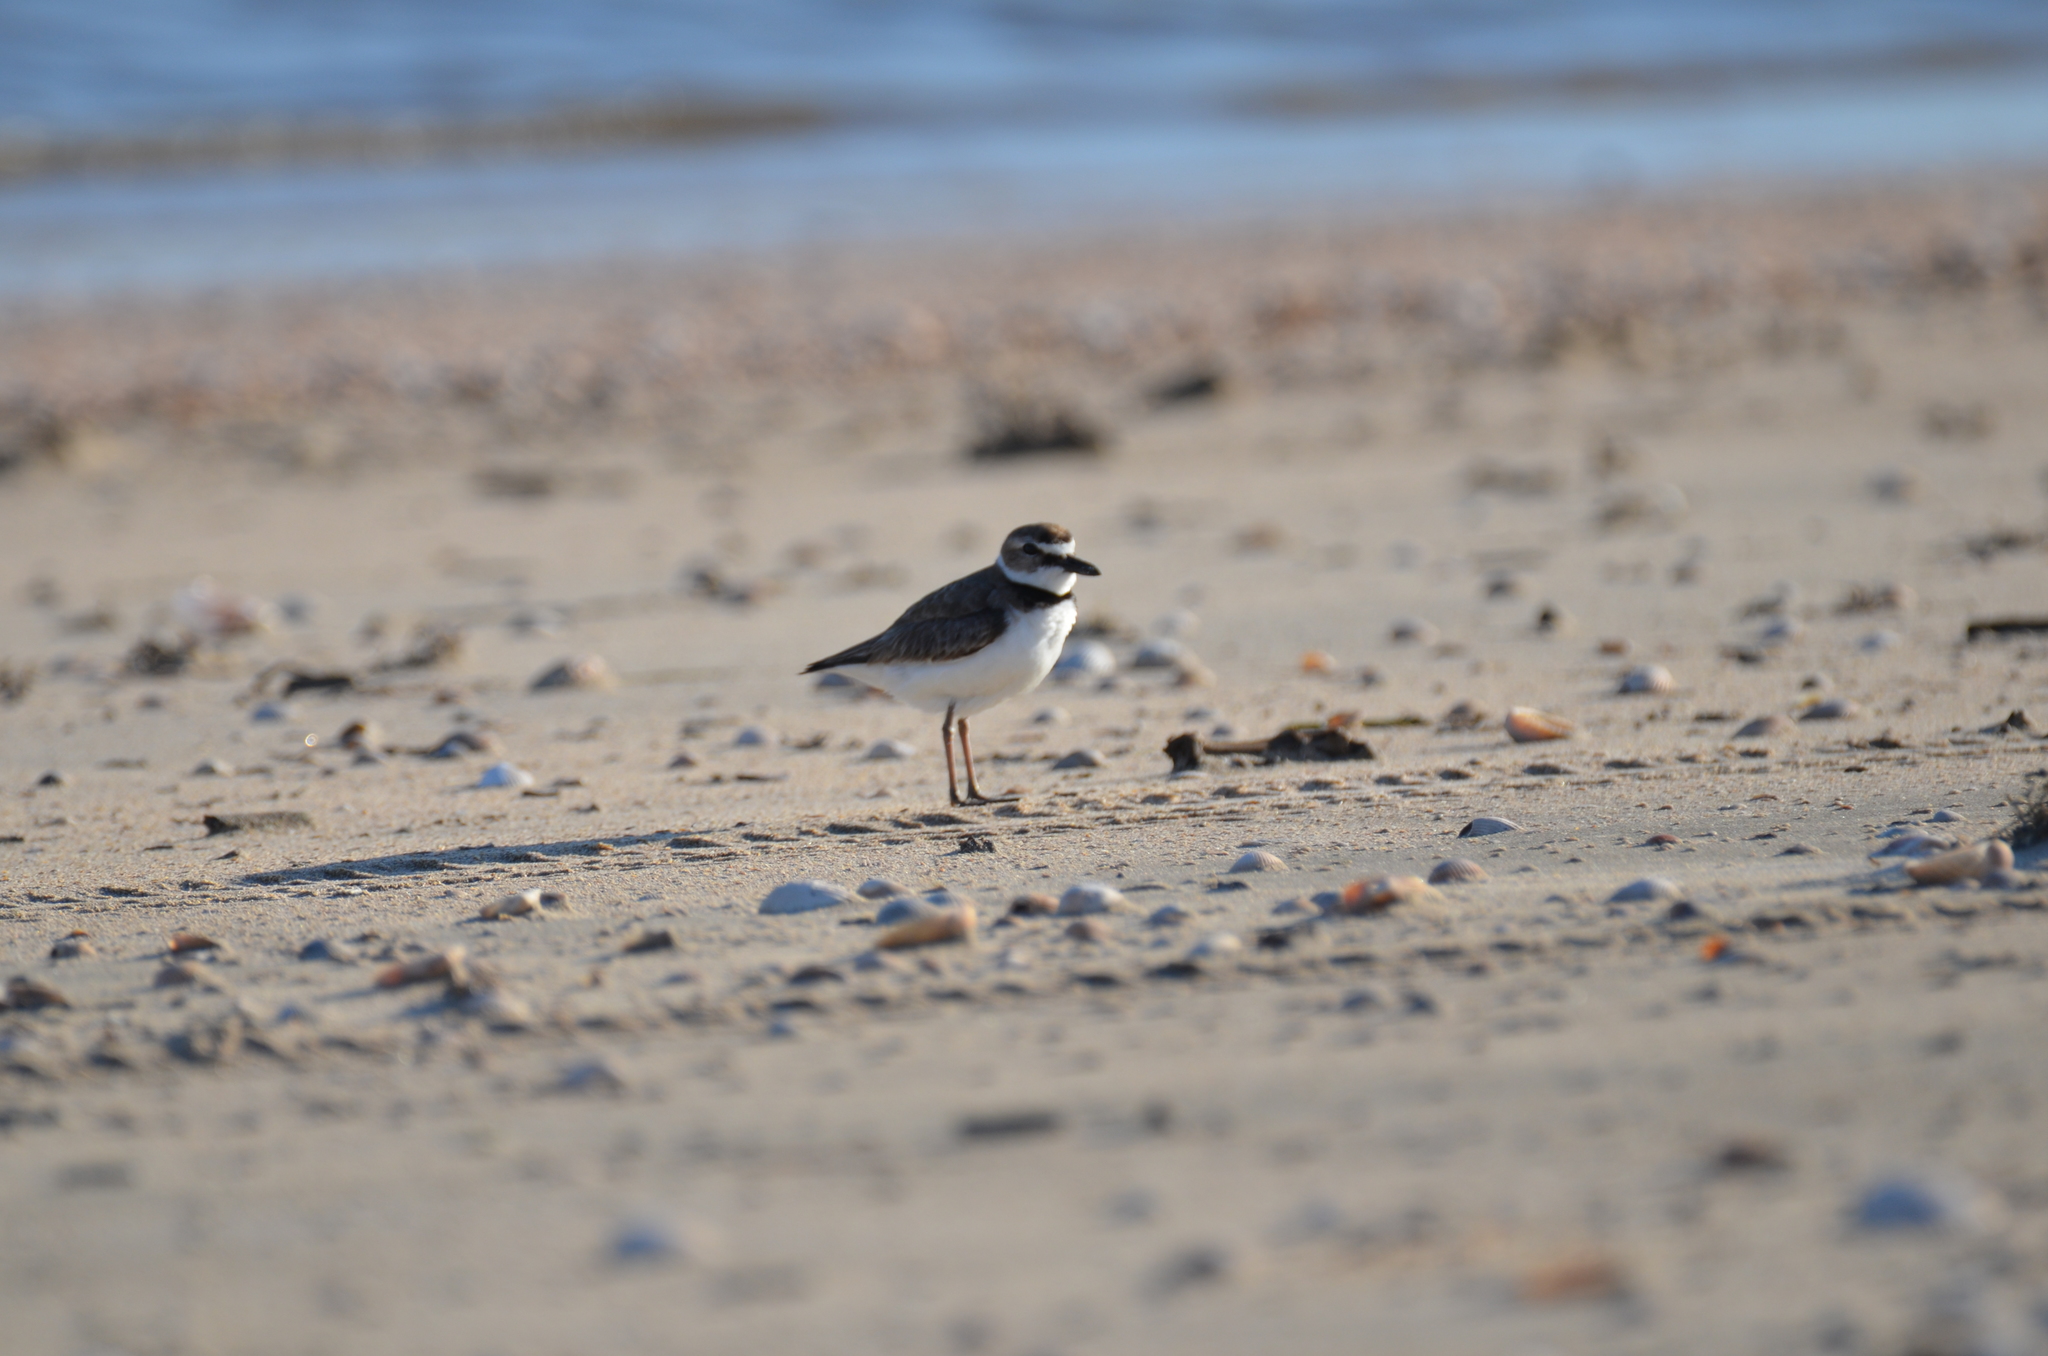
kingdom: Animalia
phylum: Chordata
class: Aves
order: Charadriiformes
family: Charadriidae
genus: Anarhynchus
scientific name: Anarhynchus
